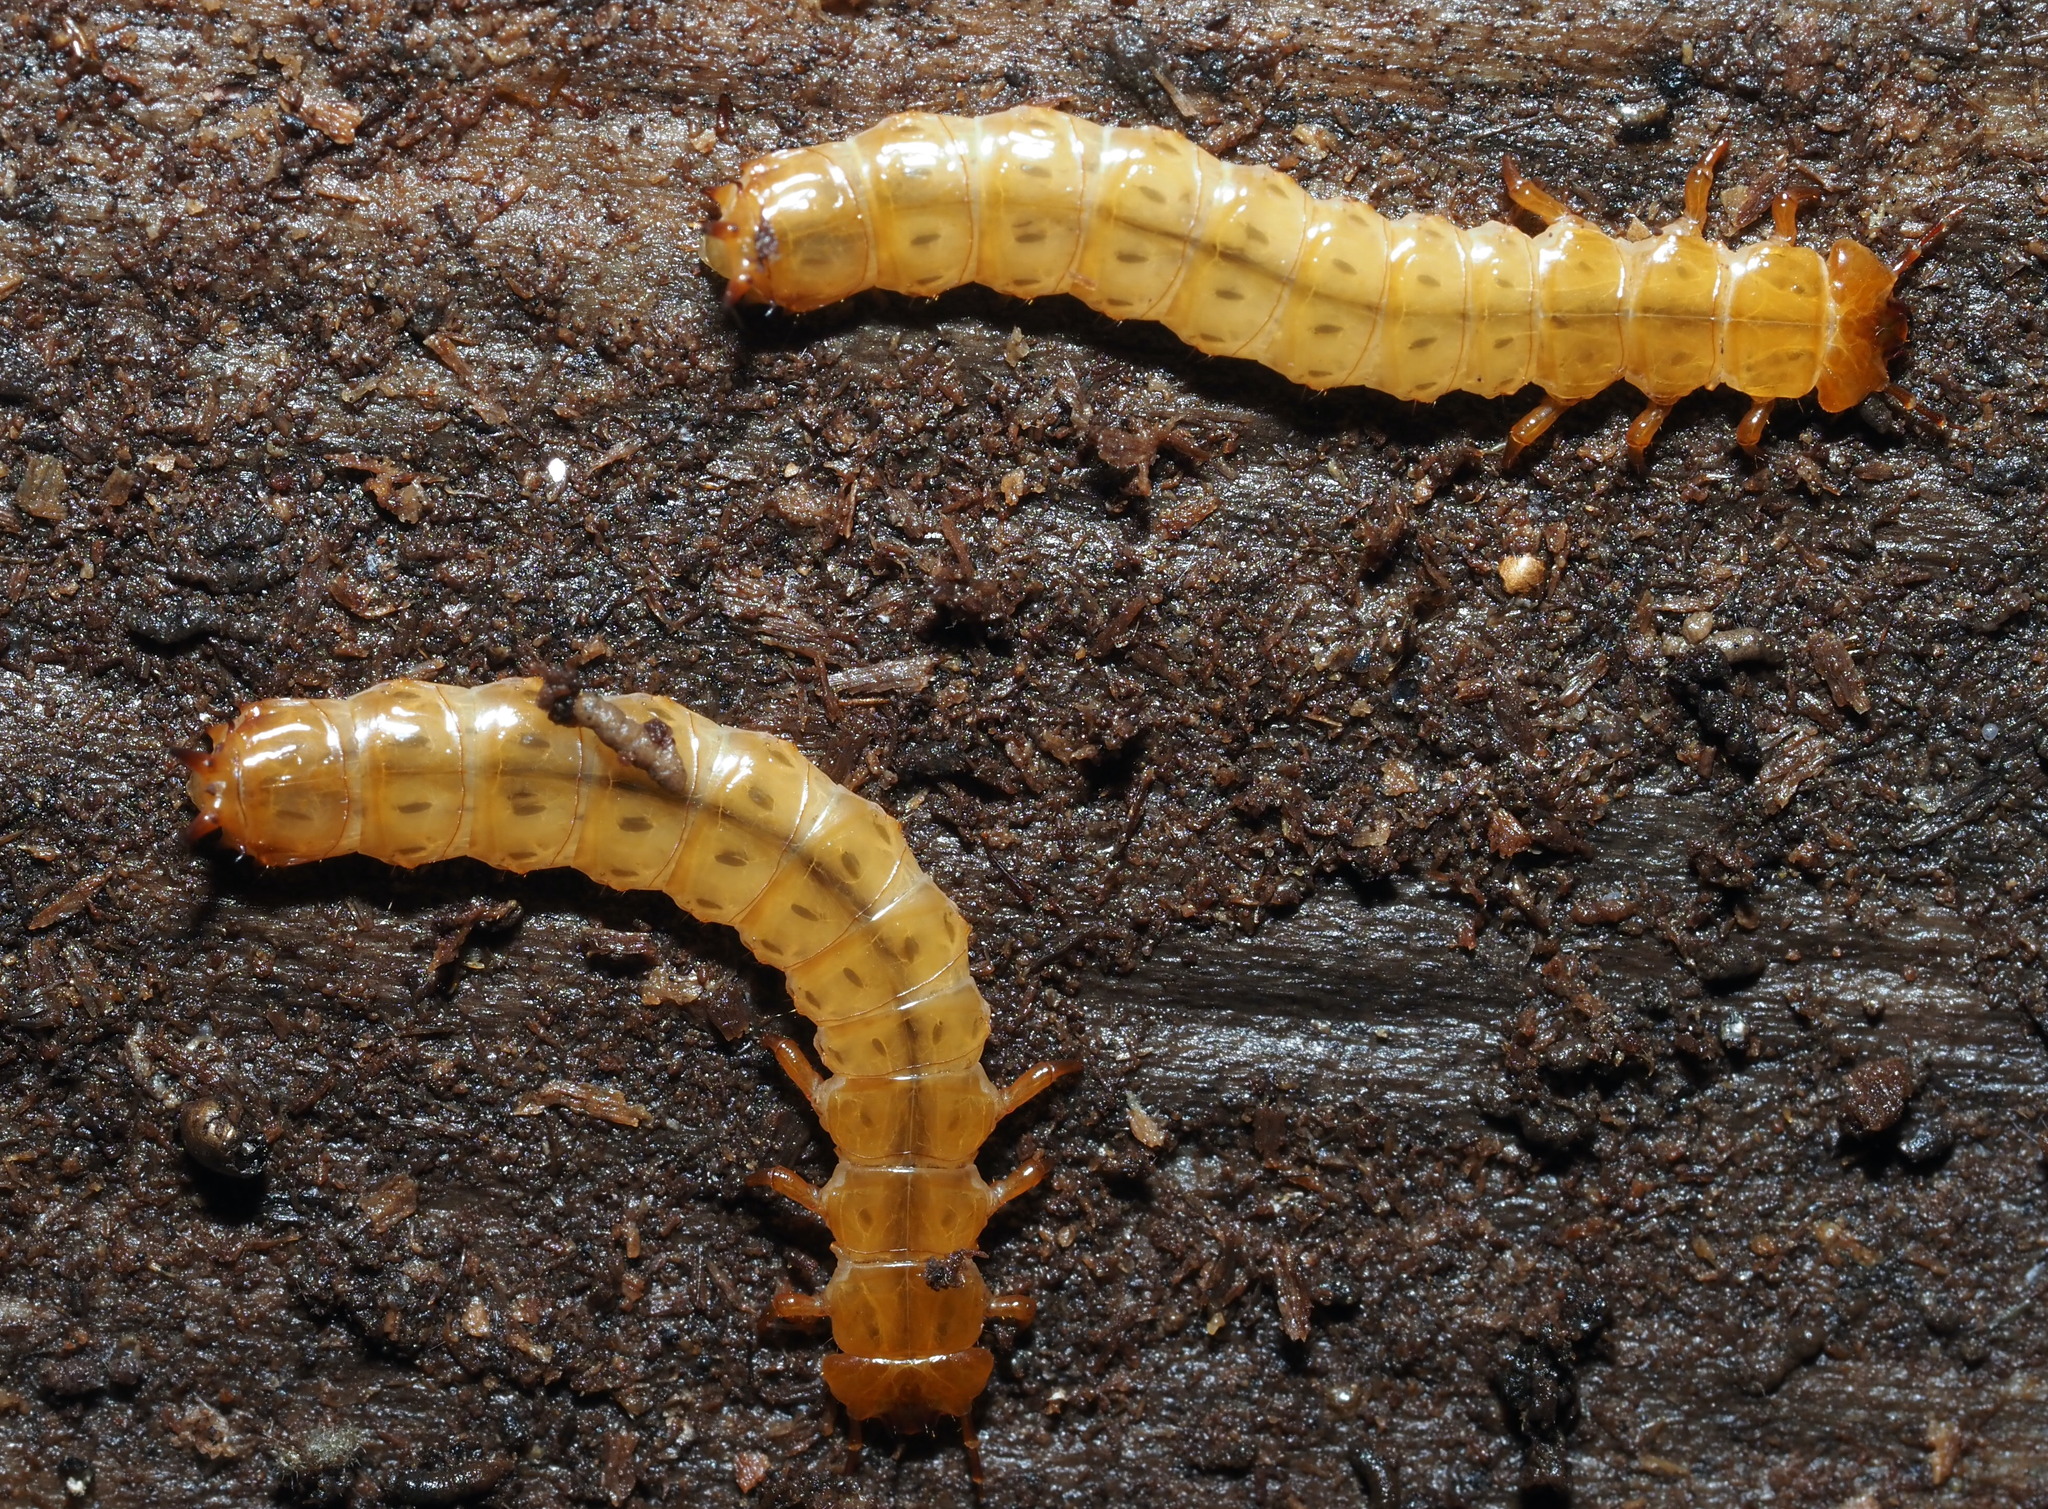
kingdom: Animalia
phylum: Arthropoda
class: Insecta
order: Coleoptera
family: Cucujidae
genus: Cucujus
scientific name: Cucujus clavipes
